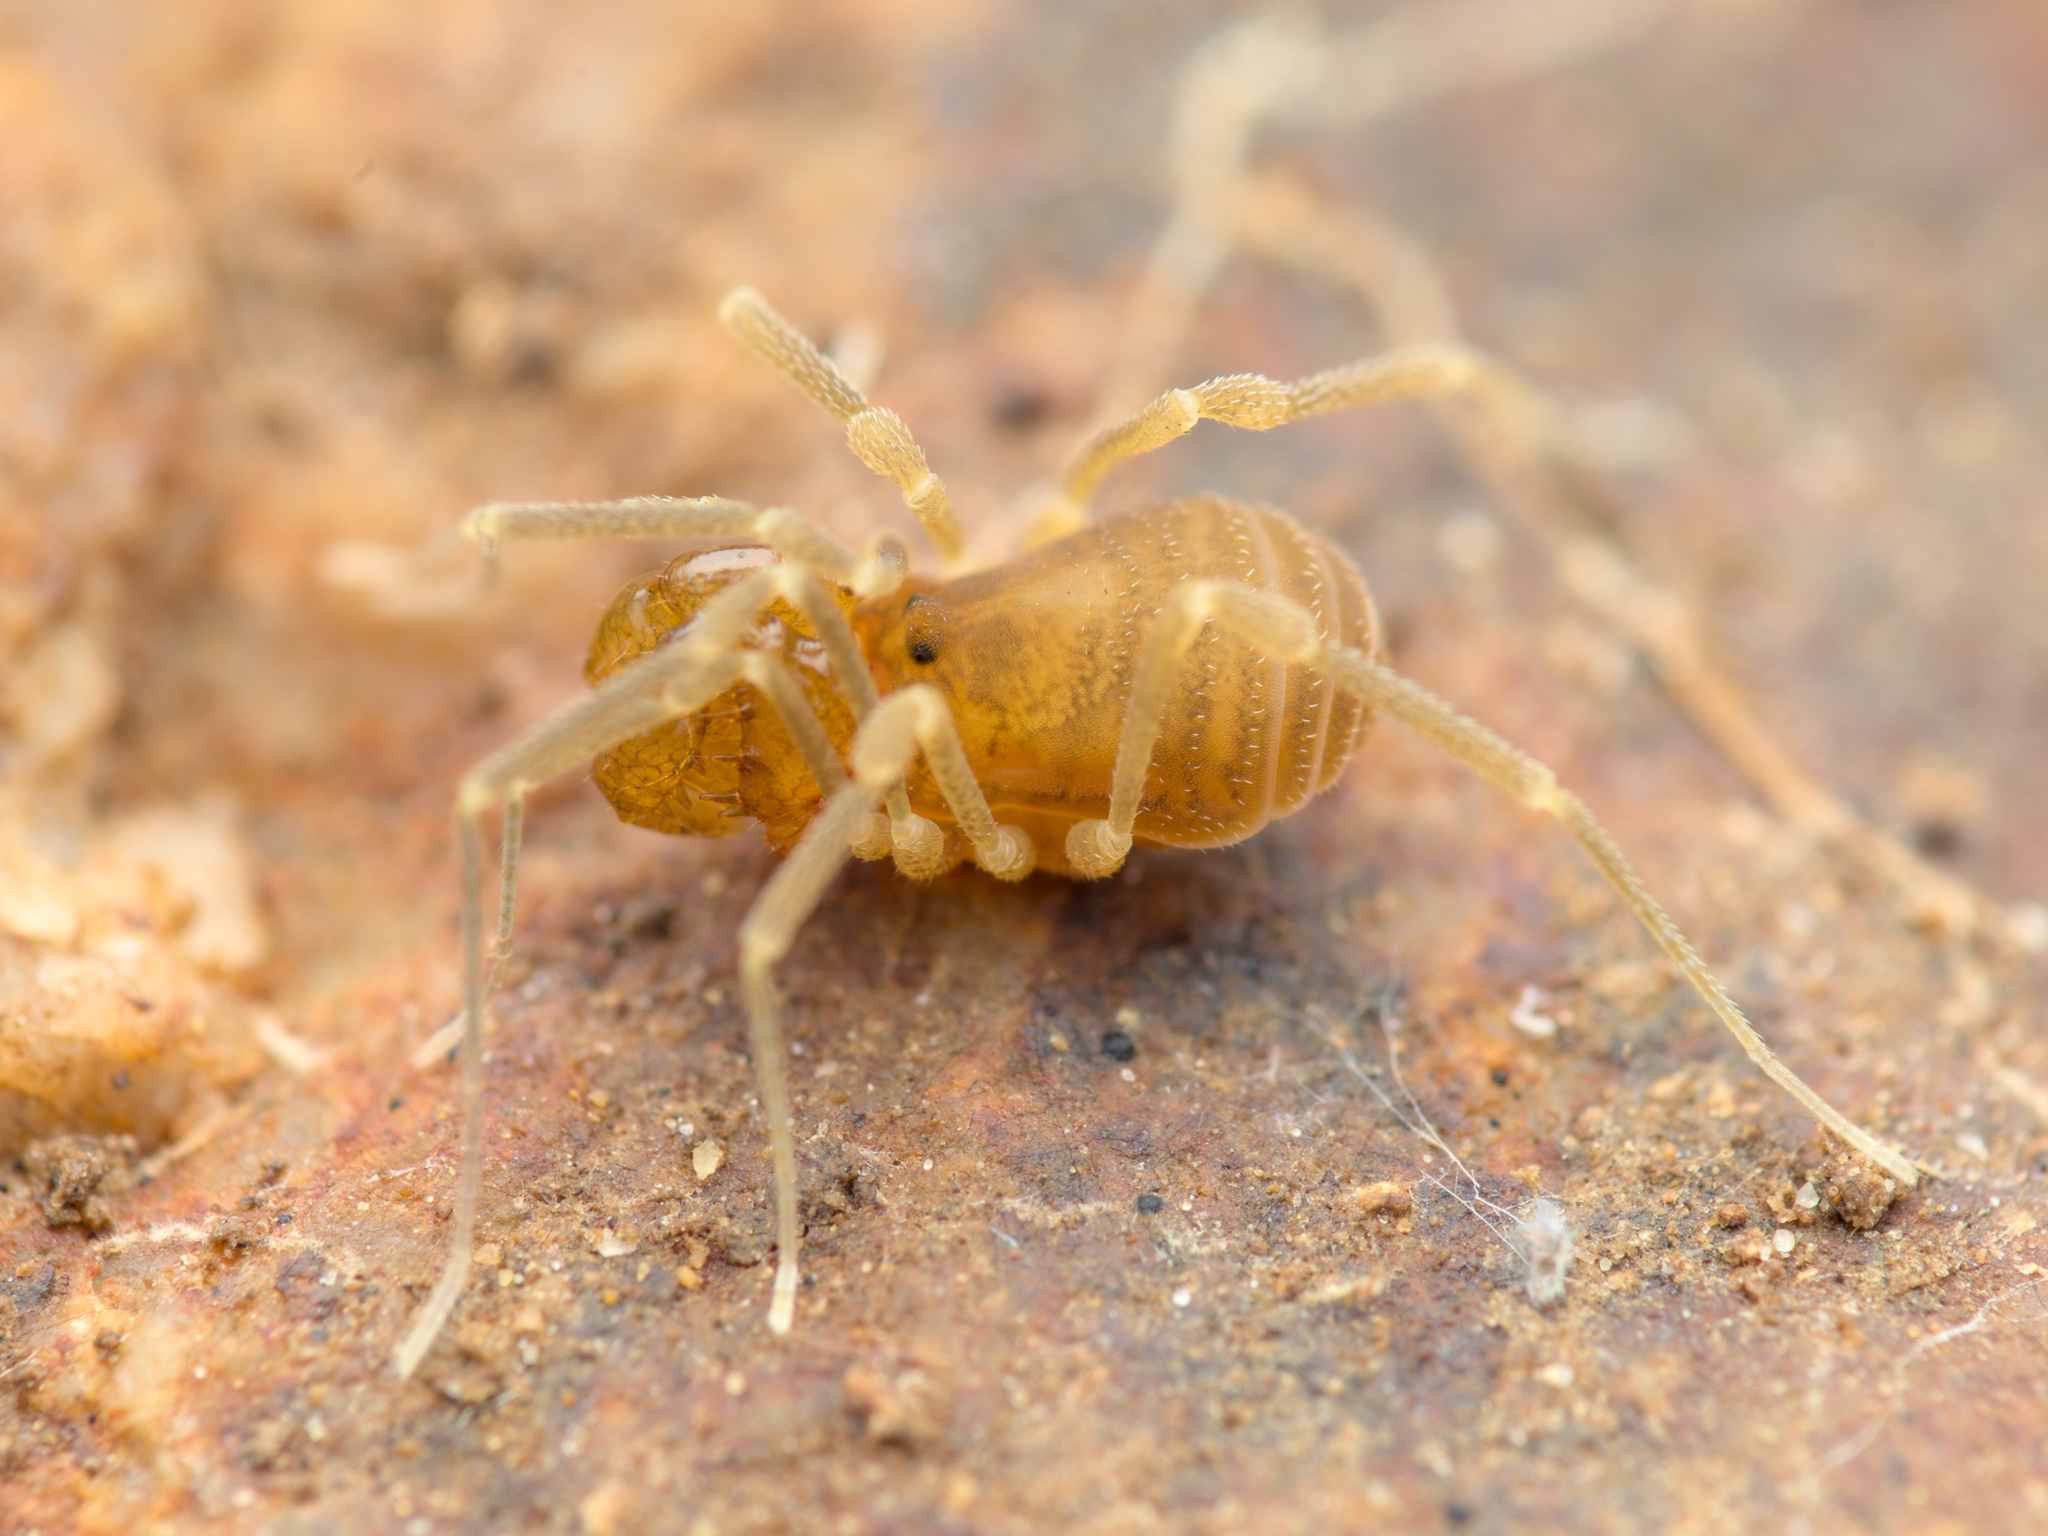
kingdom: Animalia
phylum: Arthropoda
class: Arachnida
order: Opiliones
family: Cladonychiidae
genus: Holoscotolemon
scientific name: Holoscotolemon querilhaci
